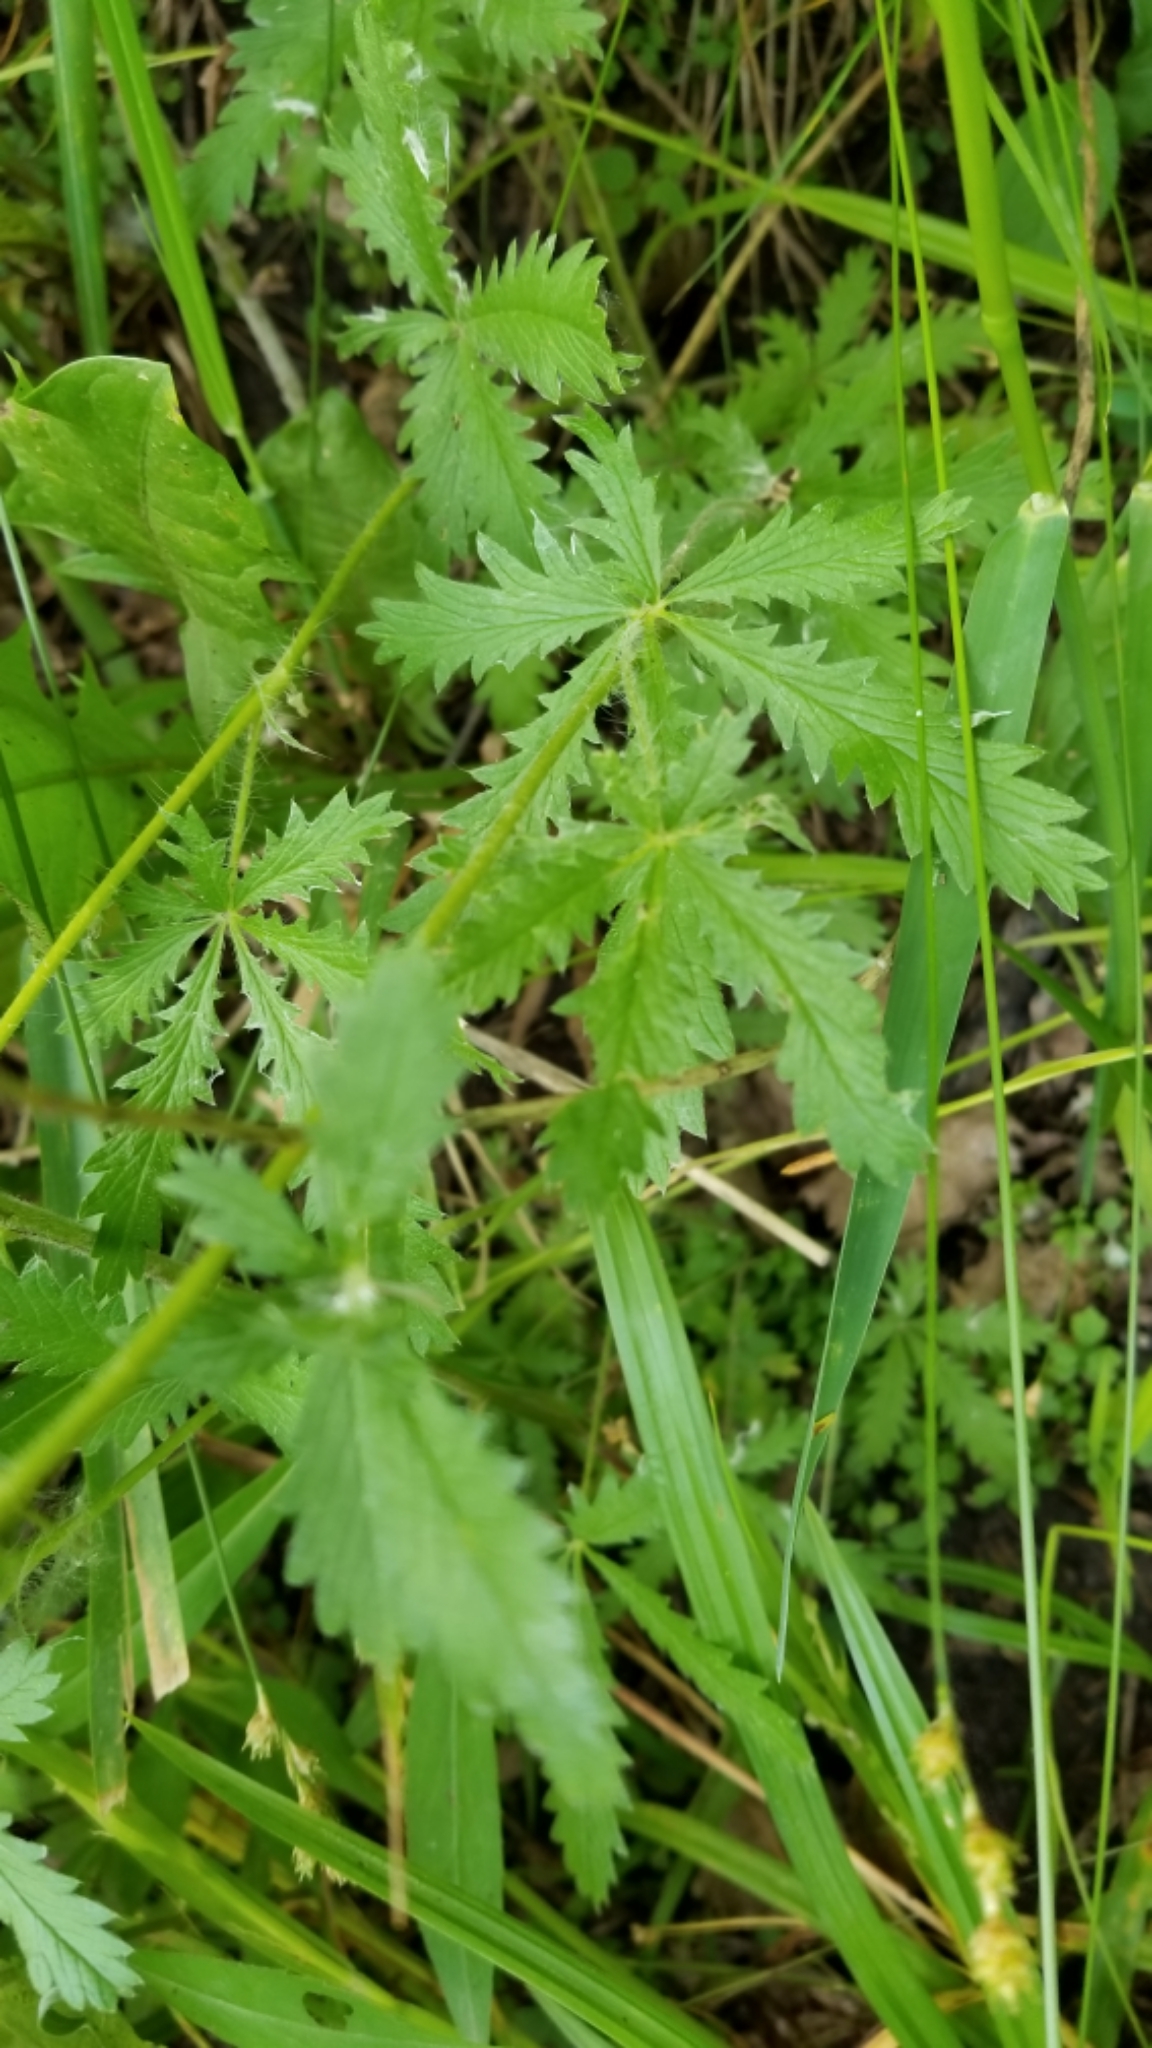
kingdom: Plantae
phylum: Tracheophyta
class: Magnoliopsida
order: Rosales
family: Rosaceae
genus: Potentilla
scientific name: Potentilla recta
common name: Sulphur cinquefoil
